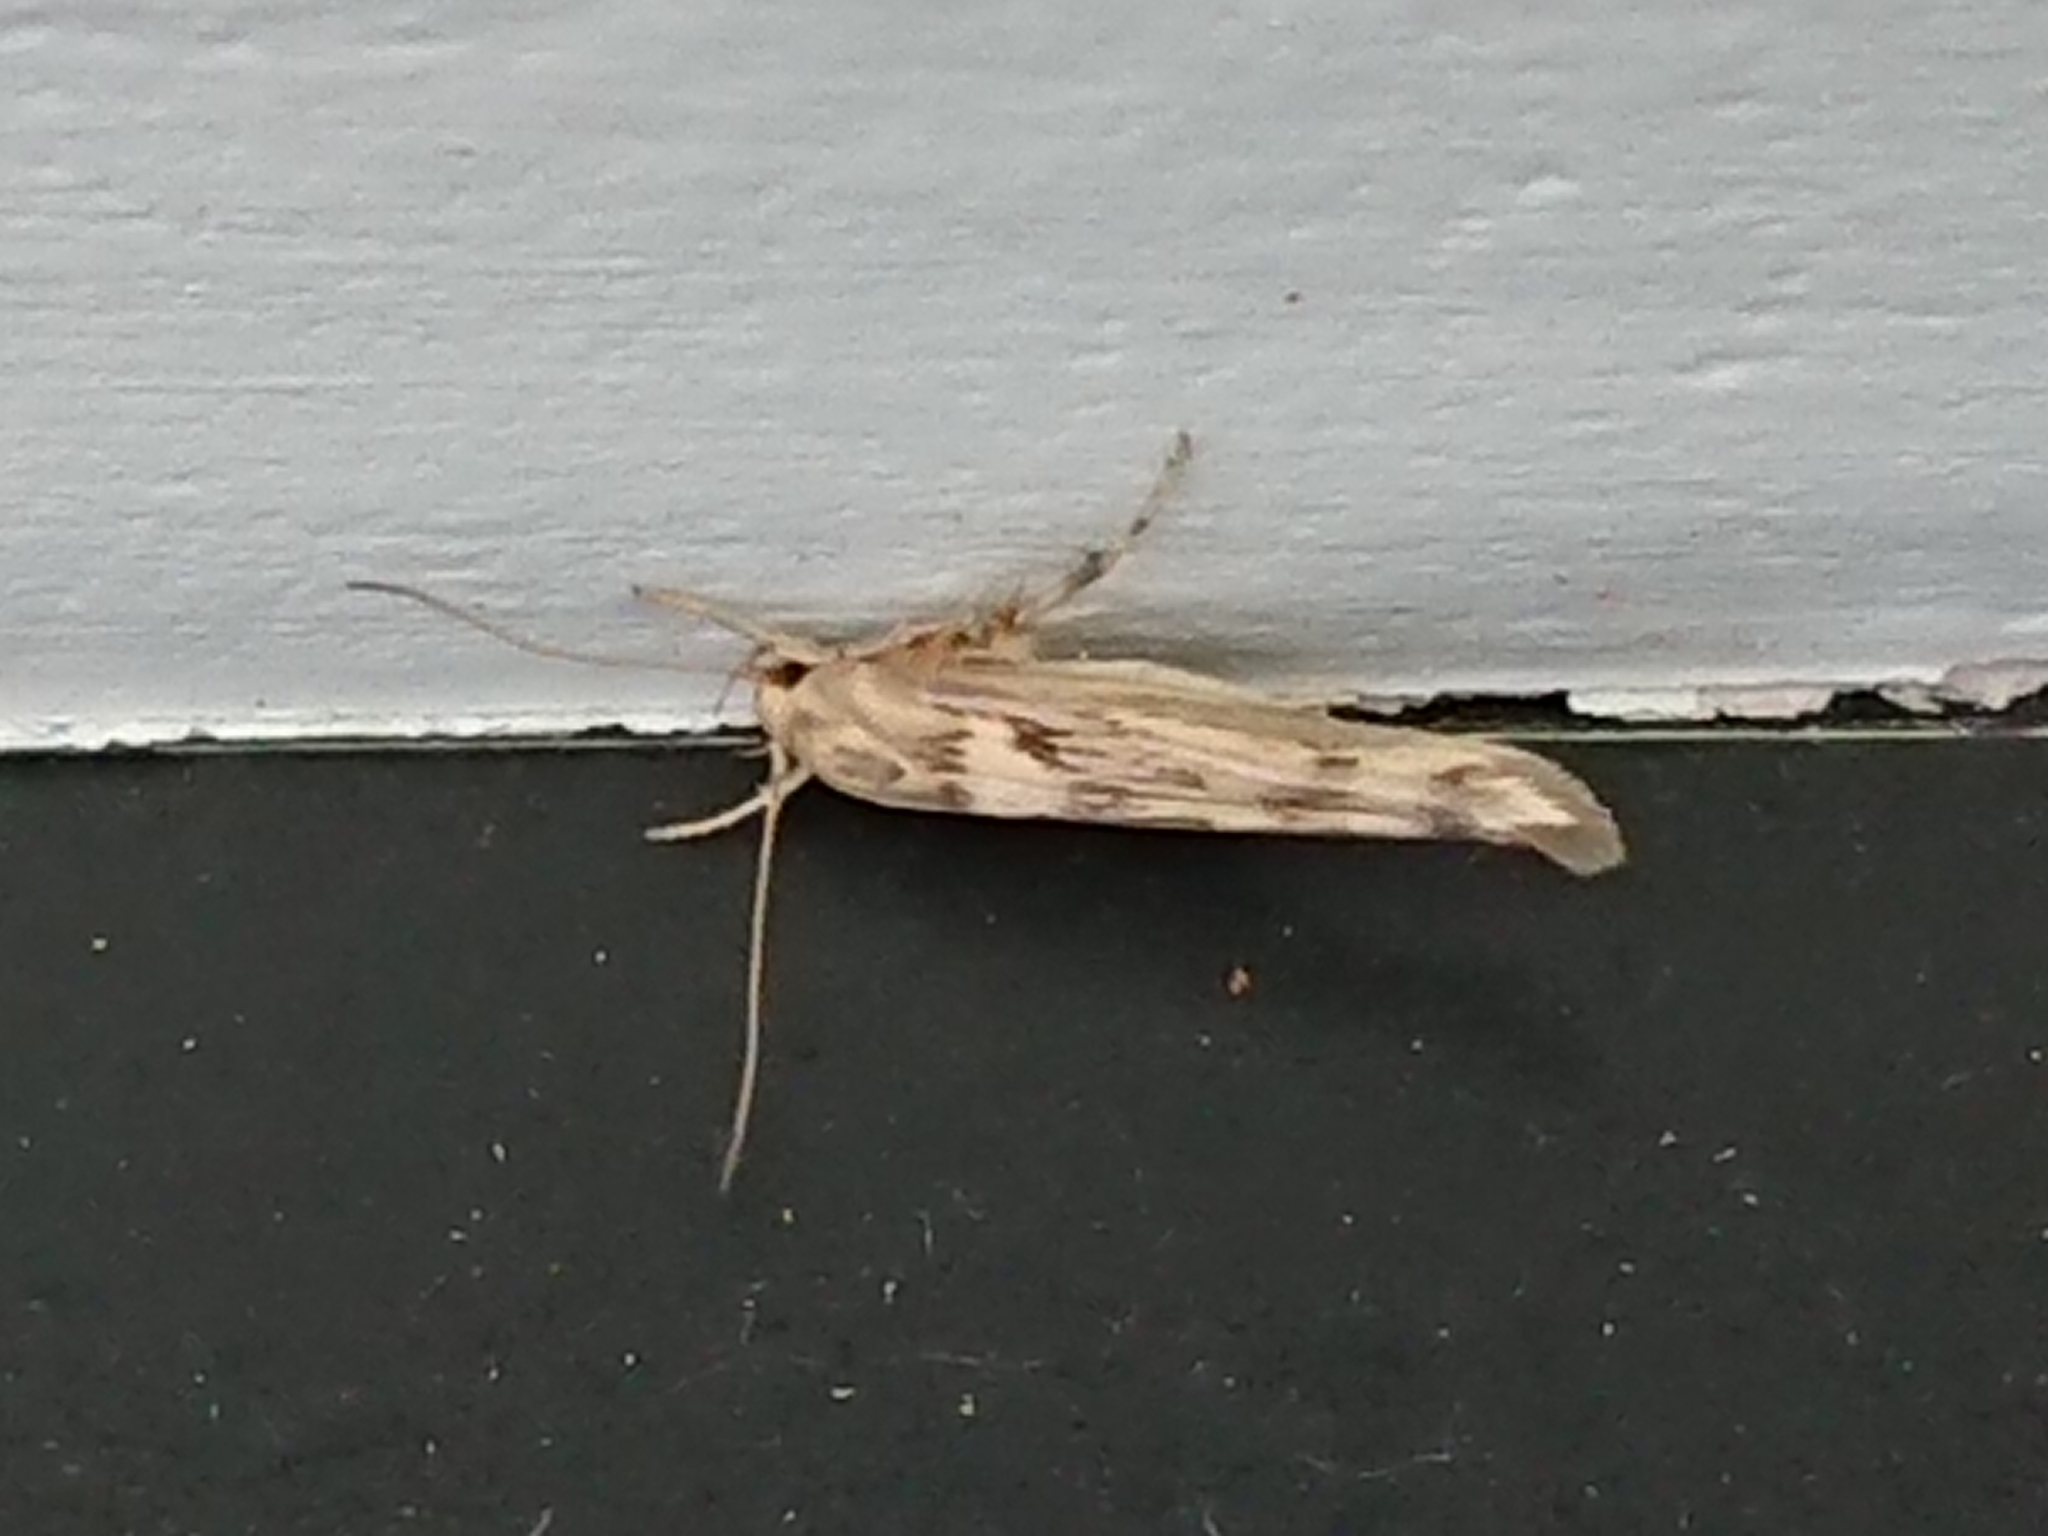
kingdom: Animalia
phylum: Arthropoda
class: Insecta
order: Lepidoptera
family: Stathmopodidae
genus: Stathmopoda
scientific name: Stathmopoda plumbiflua
